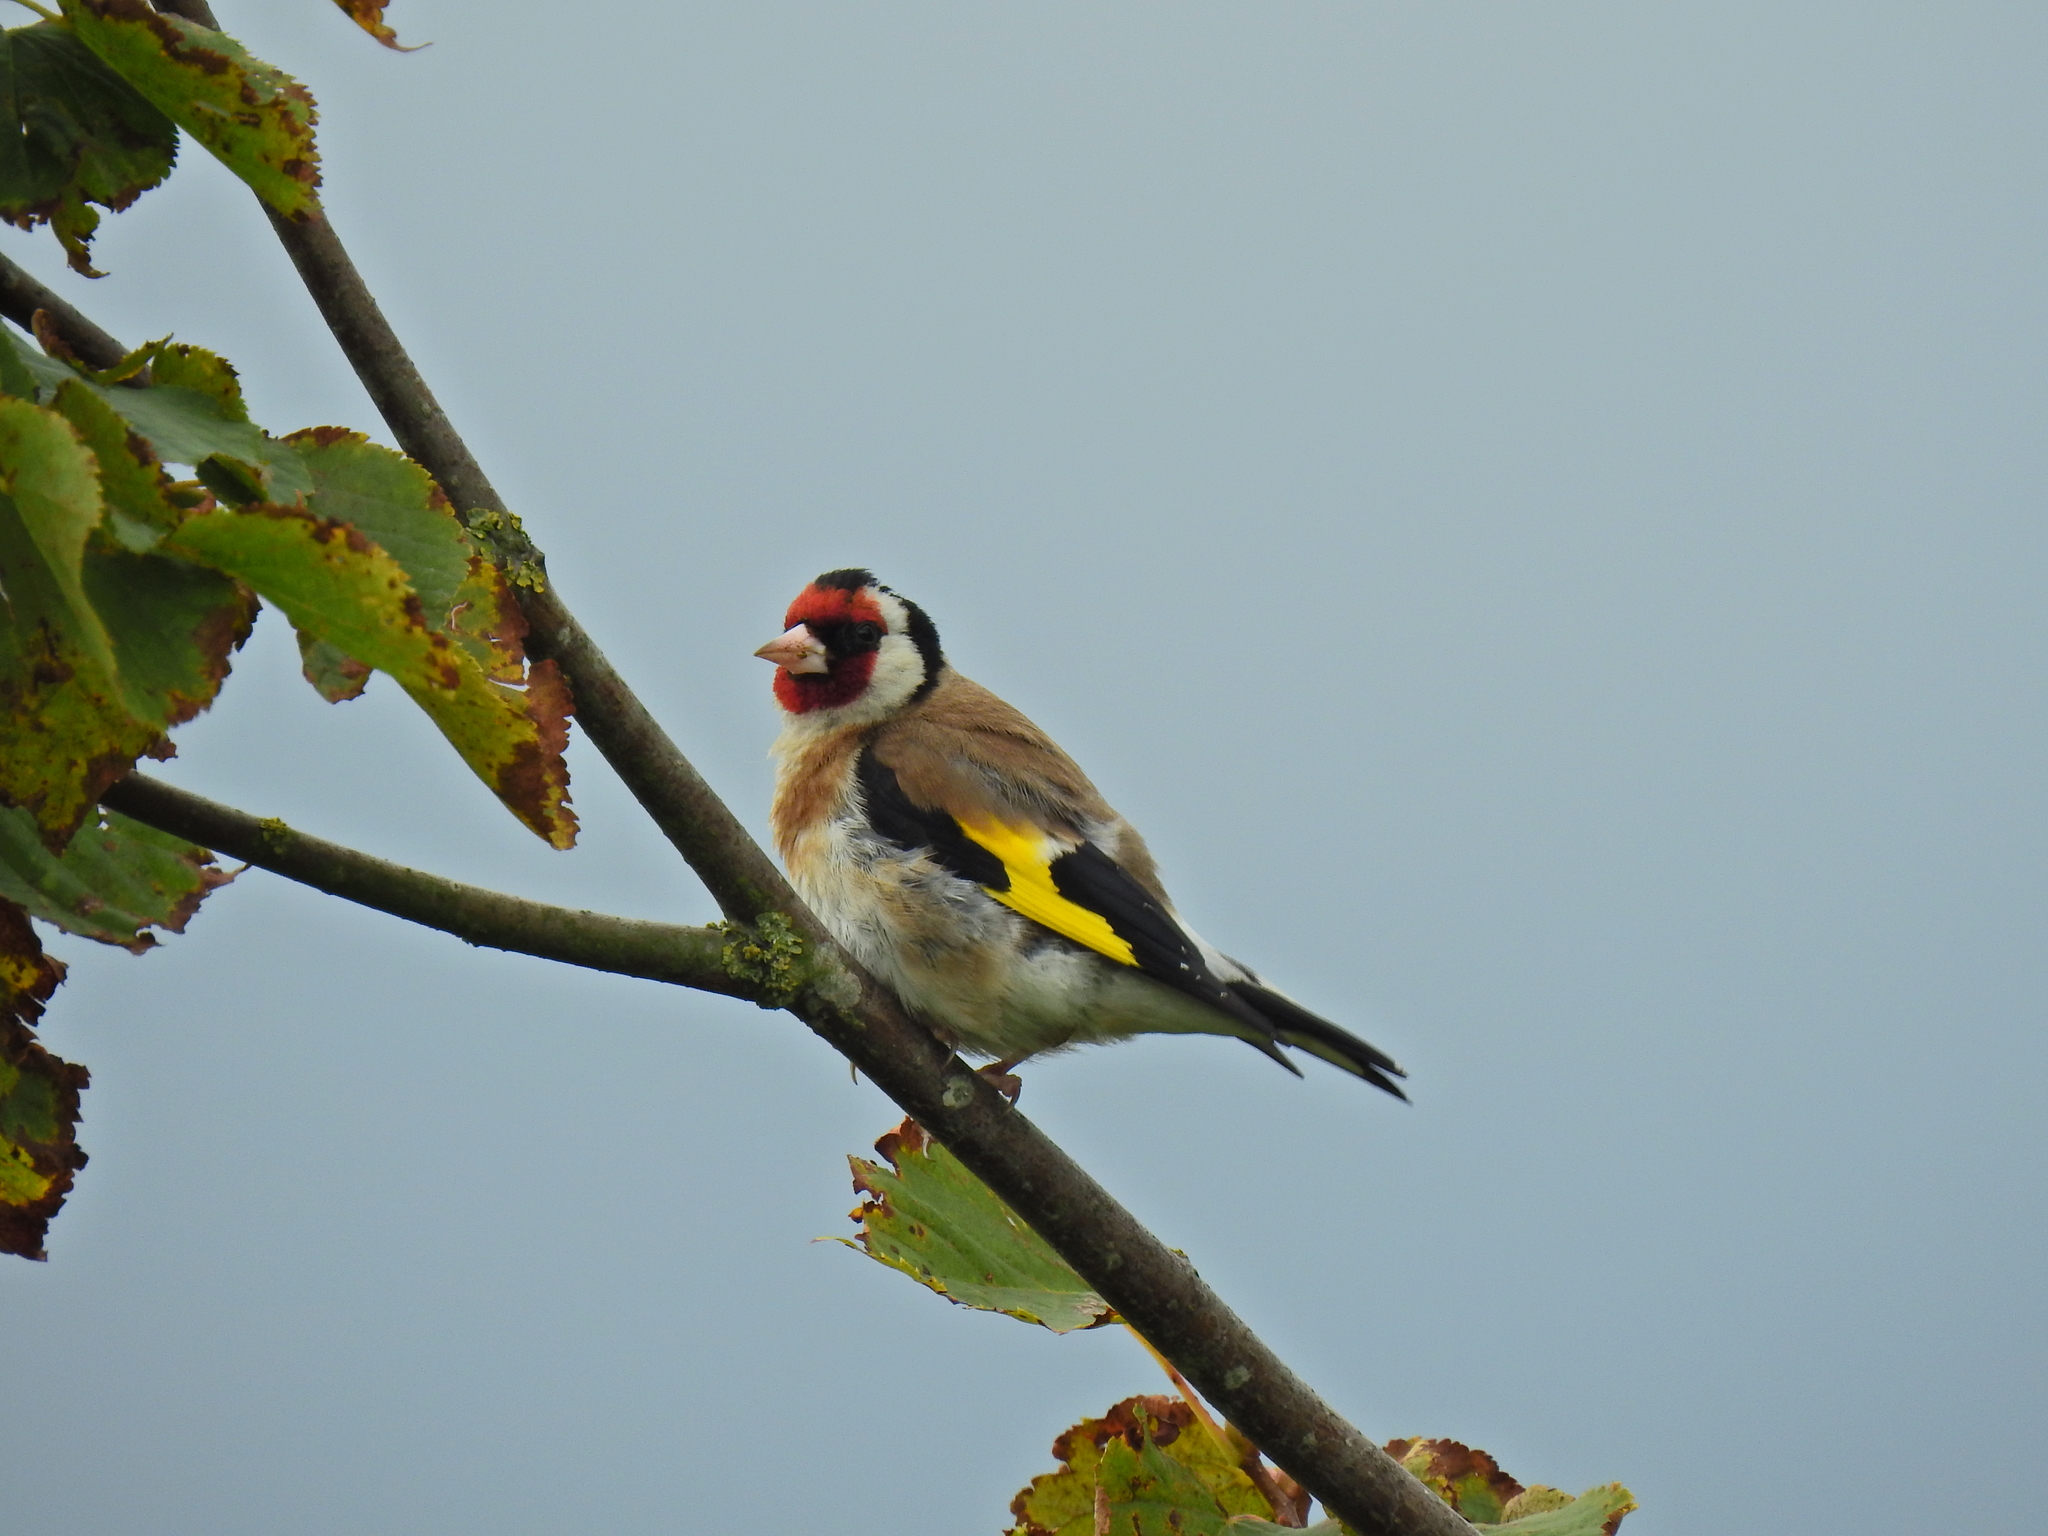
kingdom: Animalia
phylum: Chordata
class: Aves
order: Passeriformes
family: Fringillidae
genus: Carduelis
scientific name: Carduelis carduelis
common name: European goldfinch
